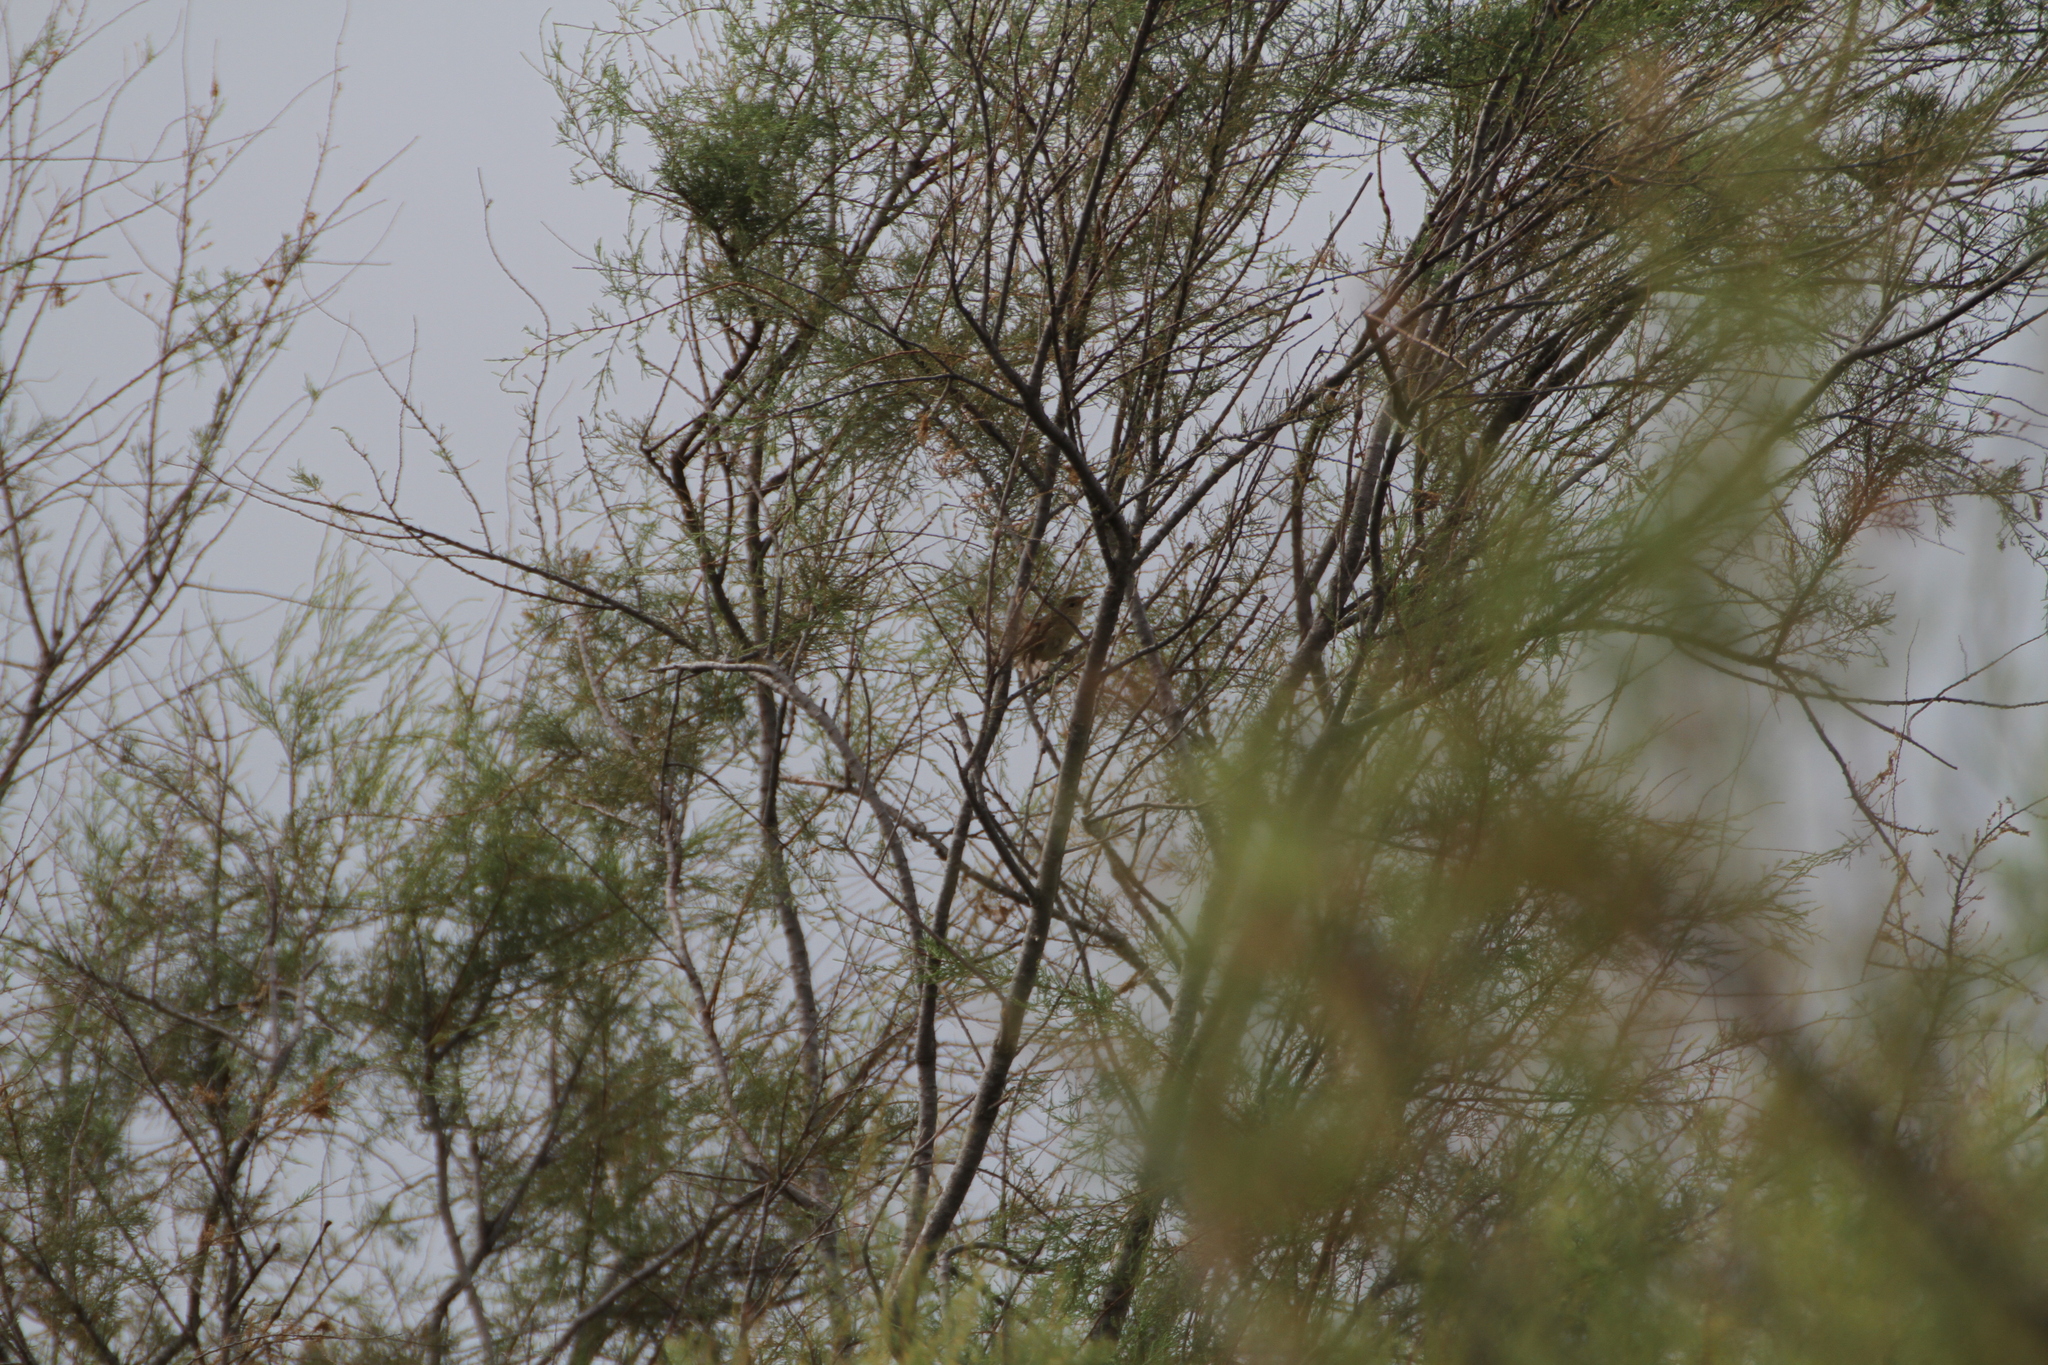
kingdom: Animalia
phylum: Chordata
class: Aves
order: Passeriformes
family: Acrocephalidae
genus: Acrocephalus
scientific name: Acrocephalus scirpaceus
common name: Eurasian reed warbler
